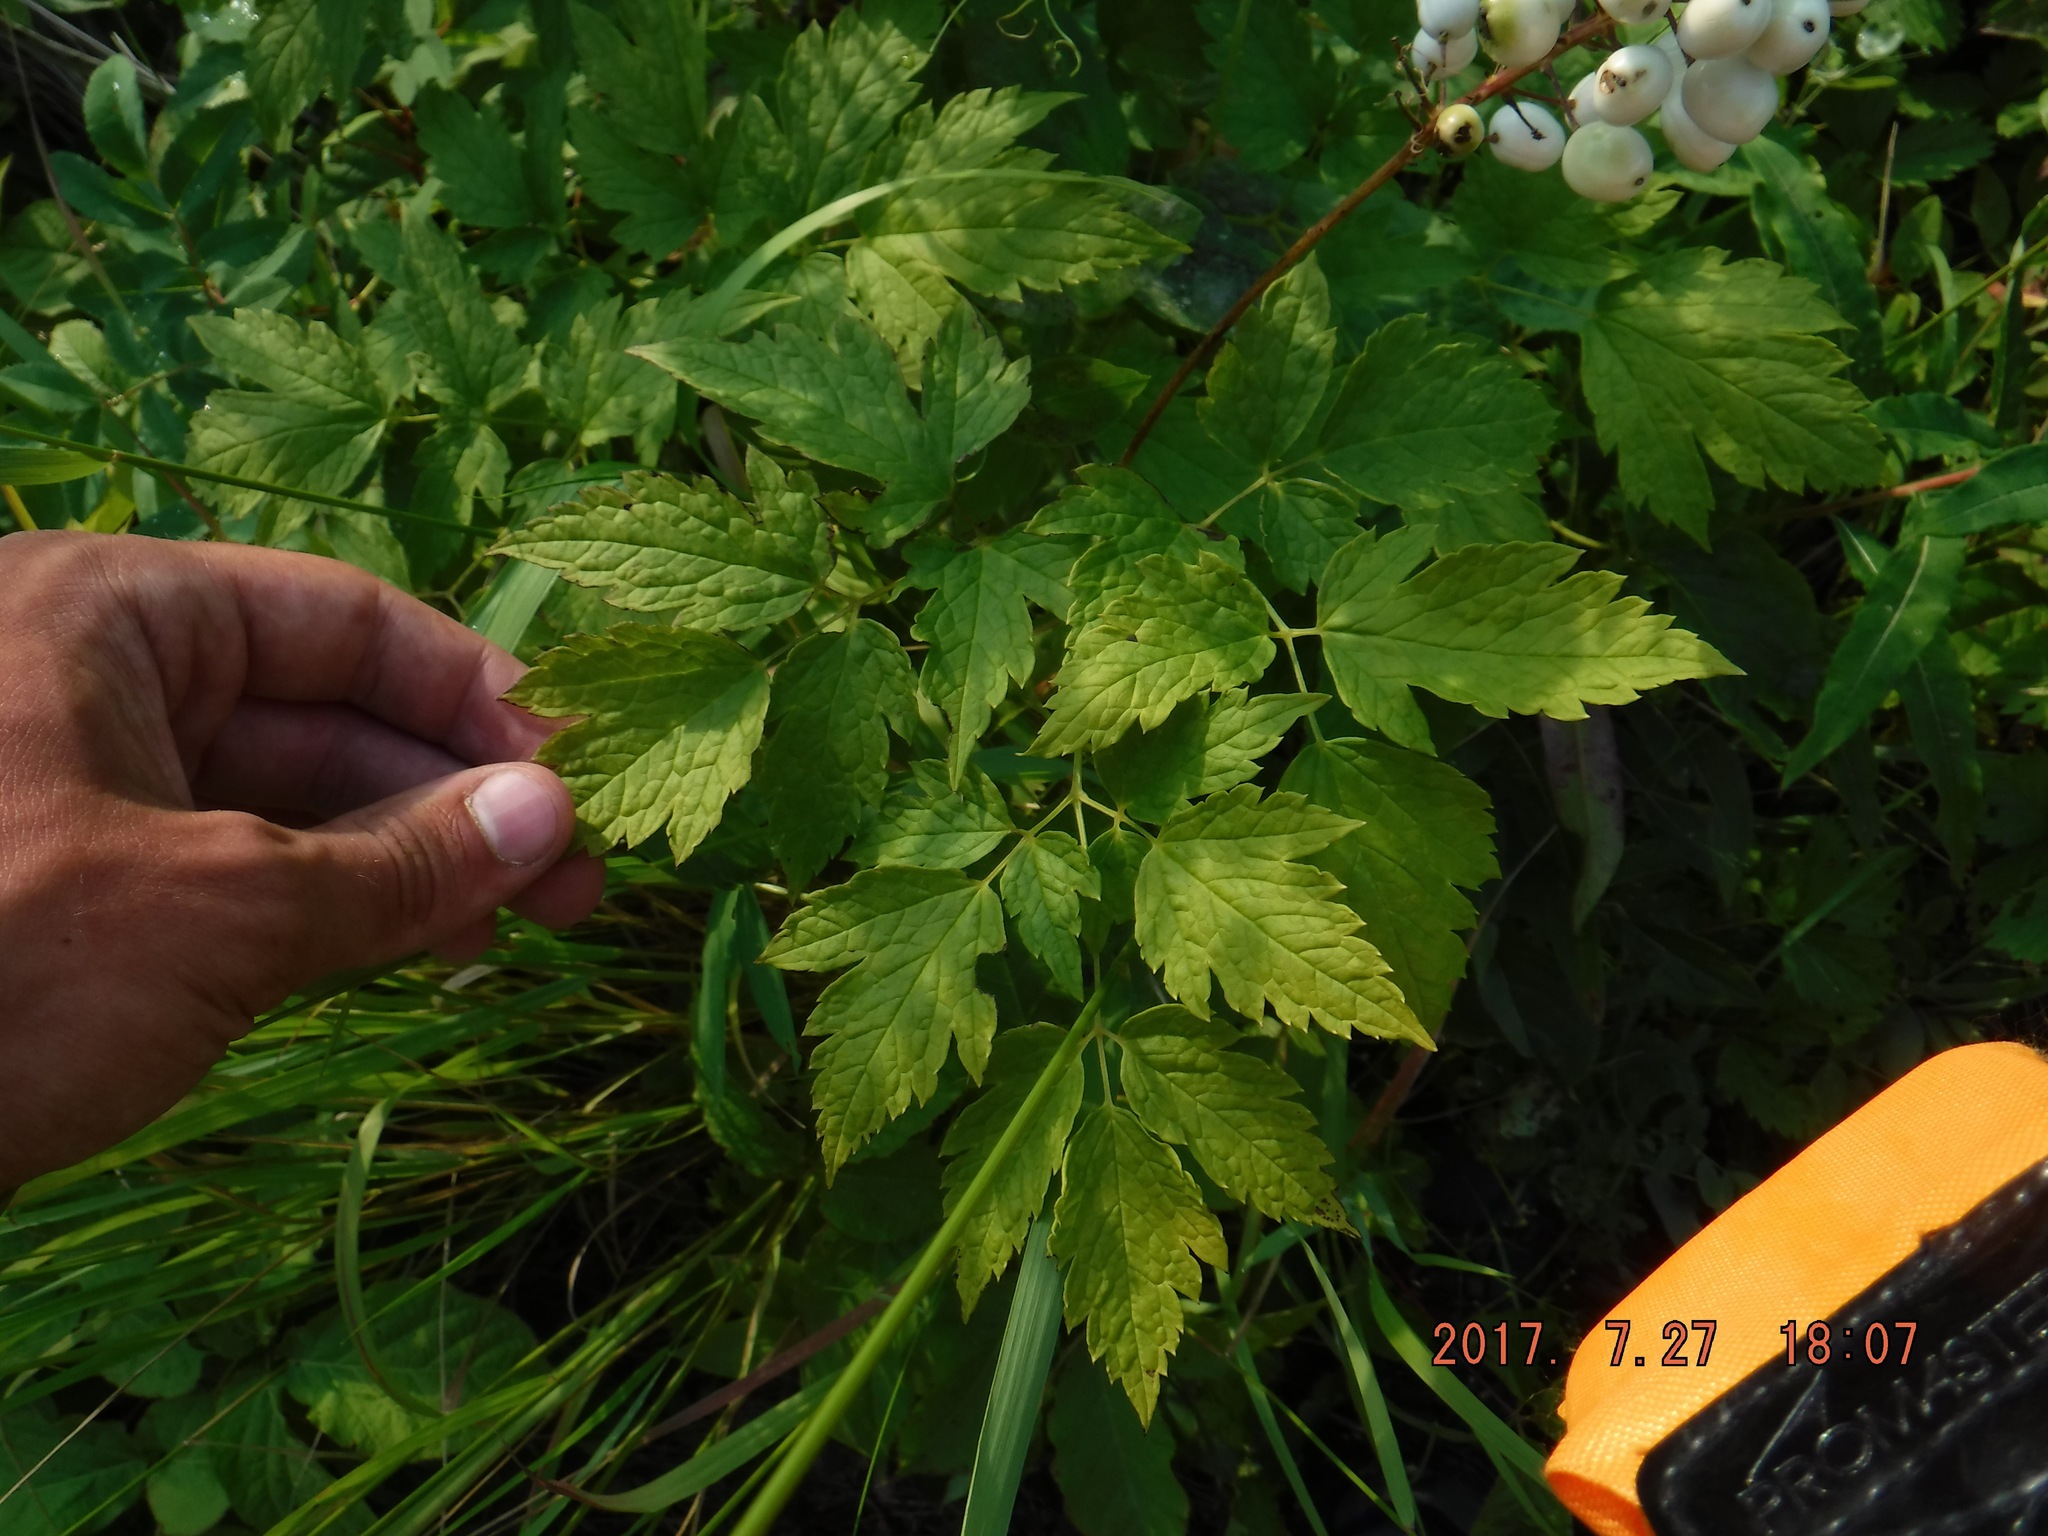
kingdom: Plantae
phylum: Tracheophyta
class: Magnoliopsida
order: Ranunculales
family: Ranunculaceae
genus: Actaea
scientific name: Actaea rubra
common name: Red baneberry
